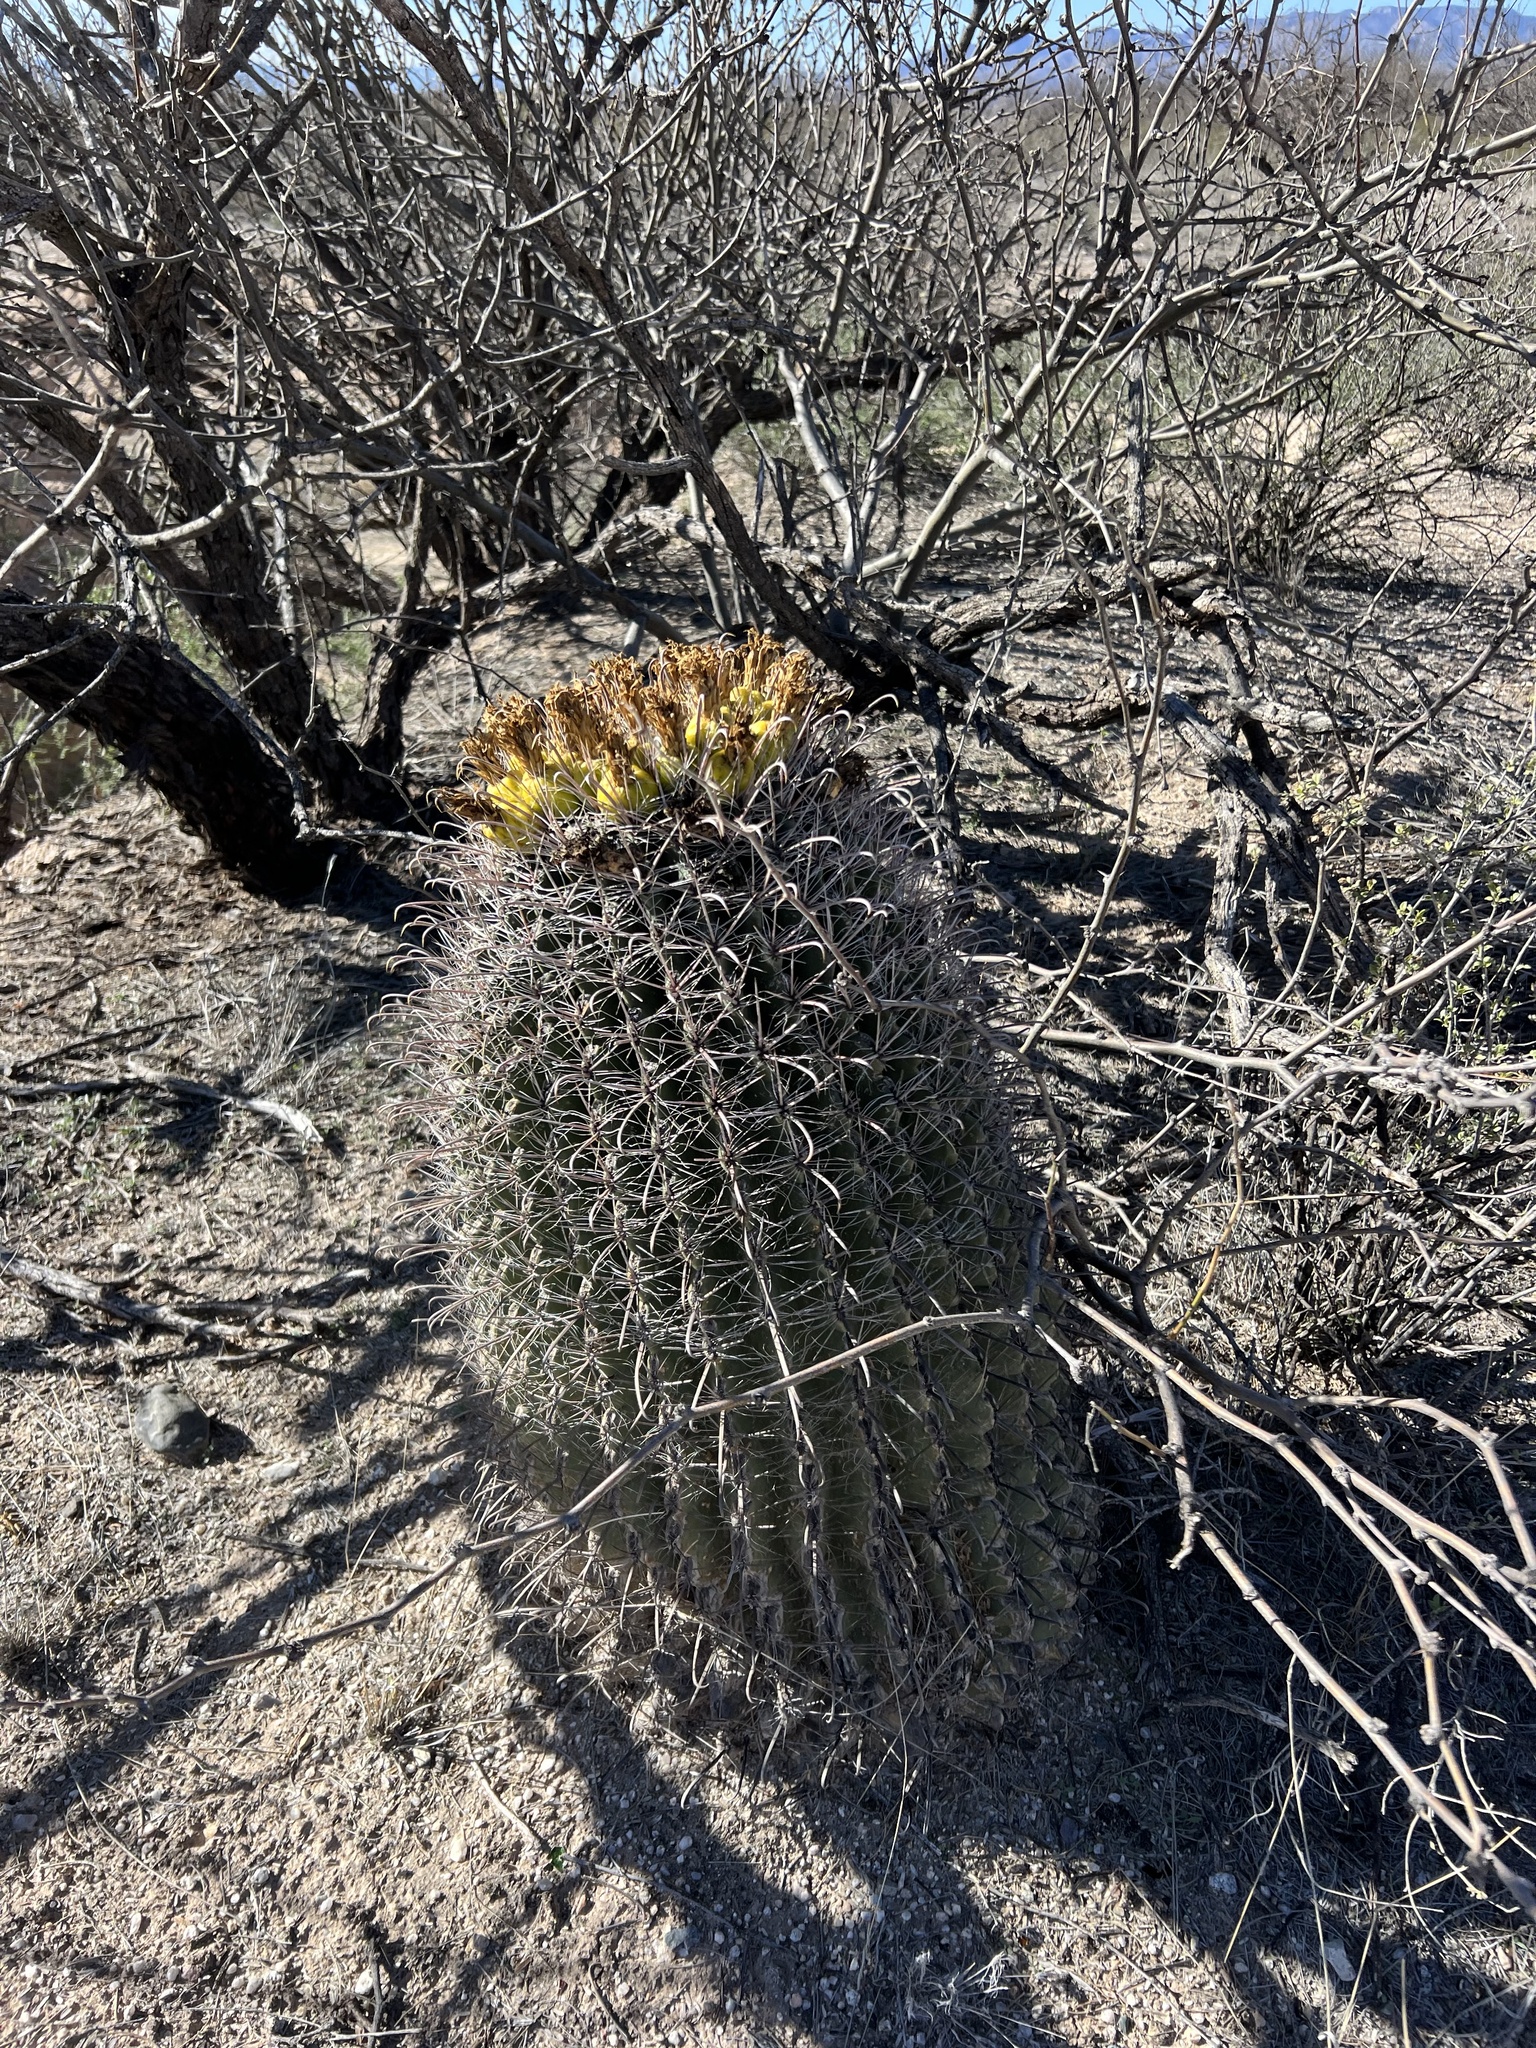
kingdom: Plantae
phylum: Tracheophyta
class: Magnoliopsida
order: Caryophyllales
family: Cactaceae
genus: Ferocactus
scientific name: Ferocactus wislizeni
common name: Candy barrel cactus
